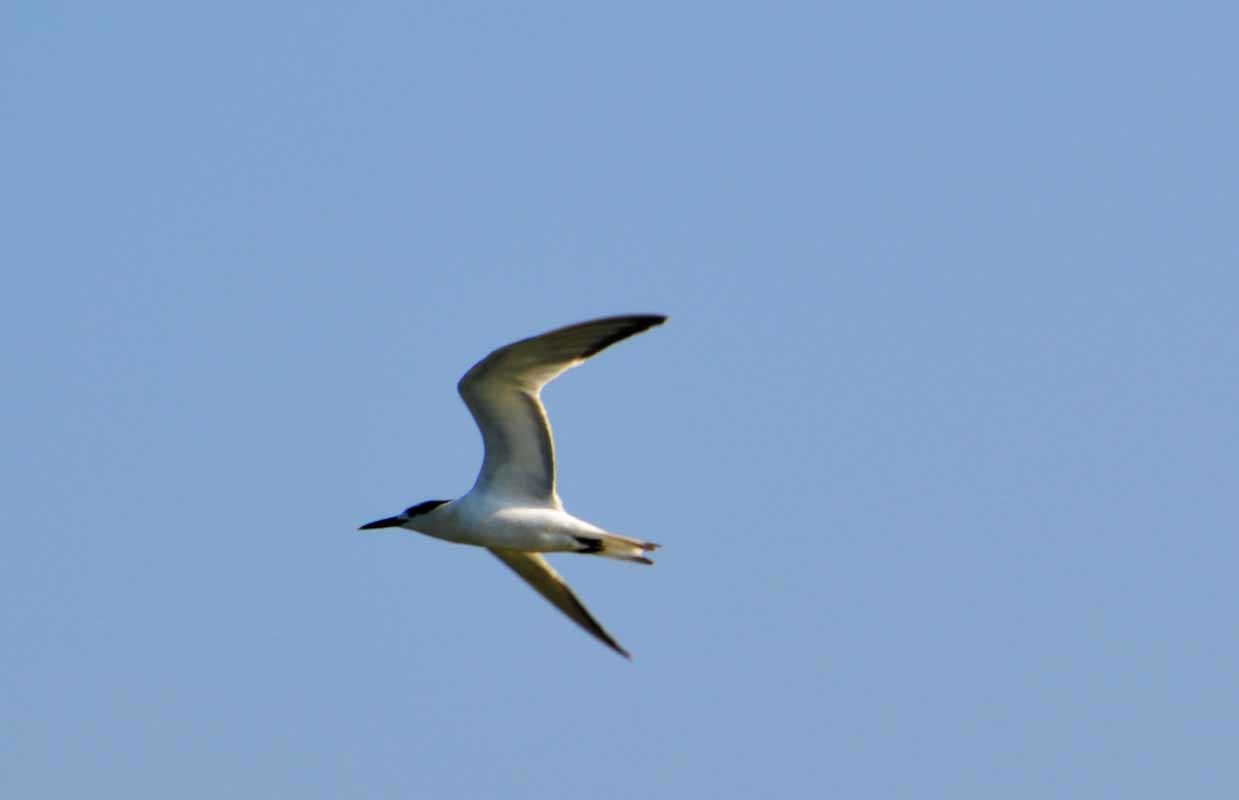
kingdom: Animalia
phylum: Chordata
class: Aves
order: Charadriiformes
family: Laridae
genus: Thalasseus
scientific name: Thalasseus sandvicensis
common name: Sandwich tern
